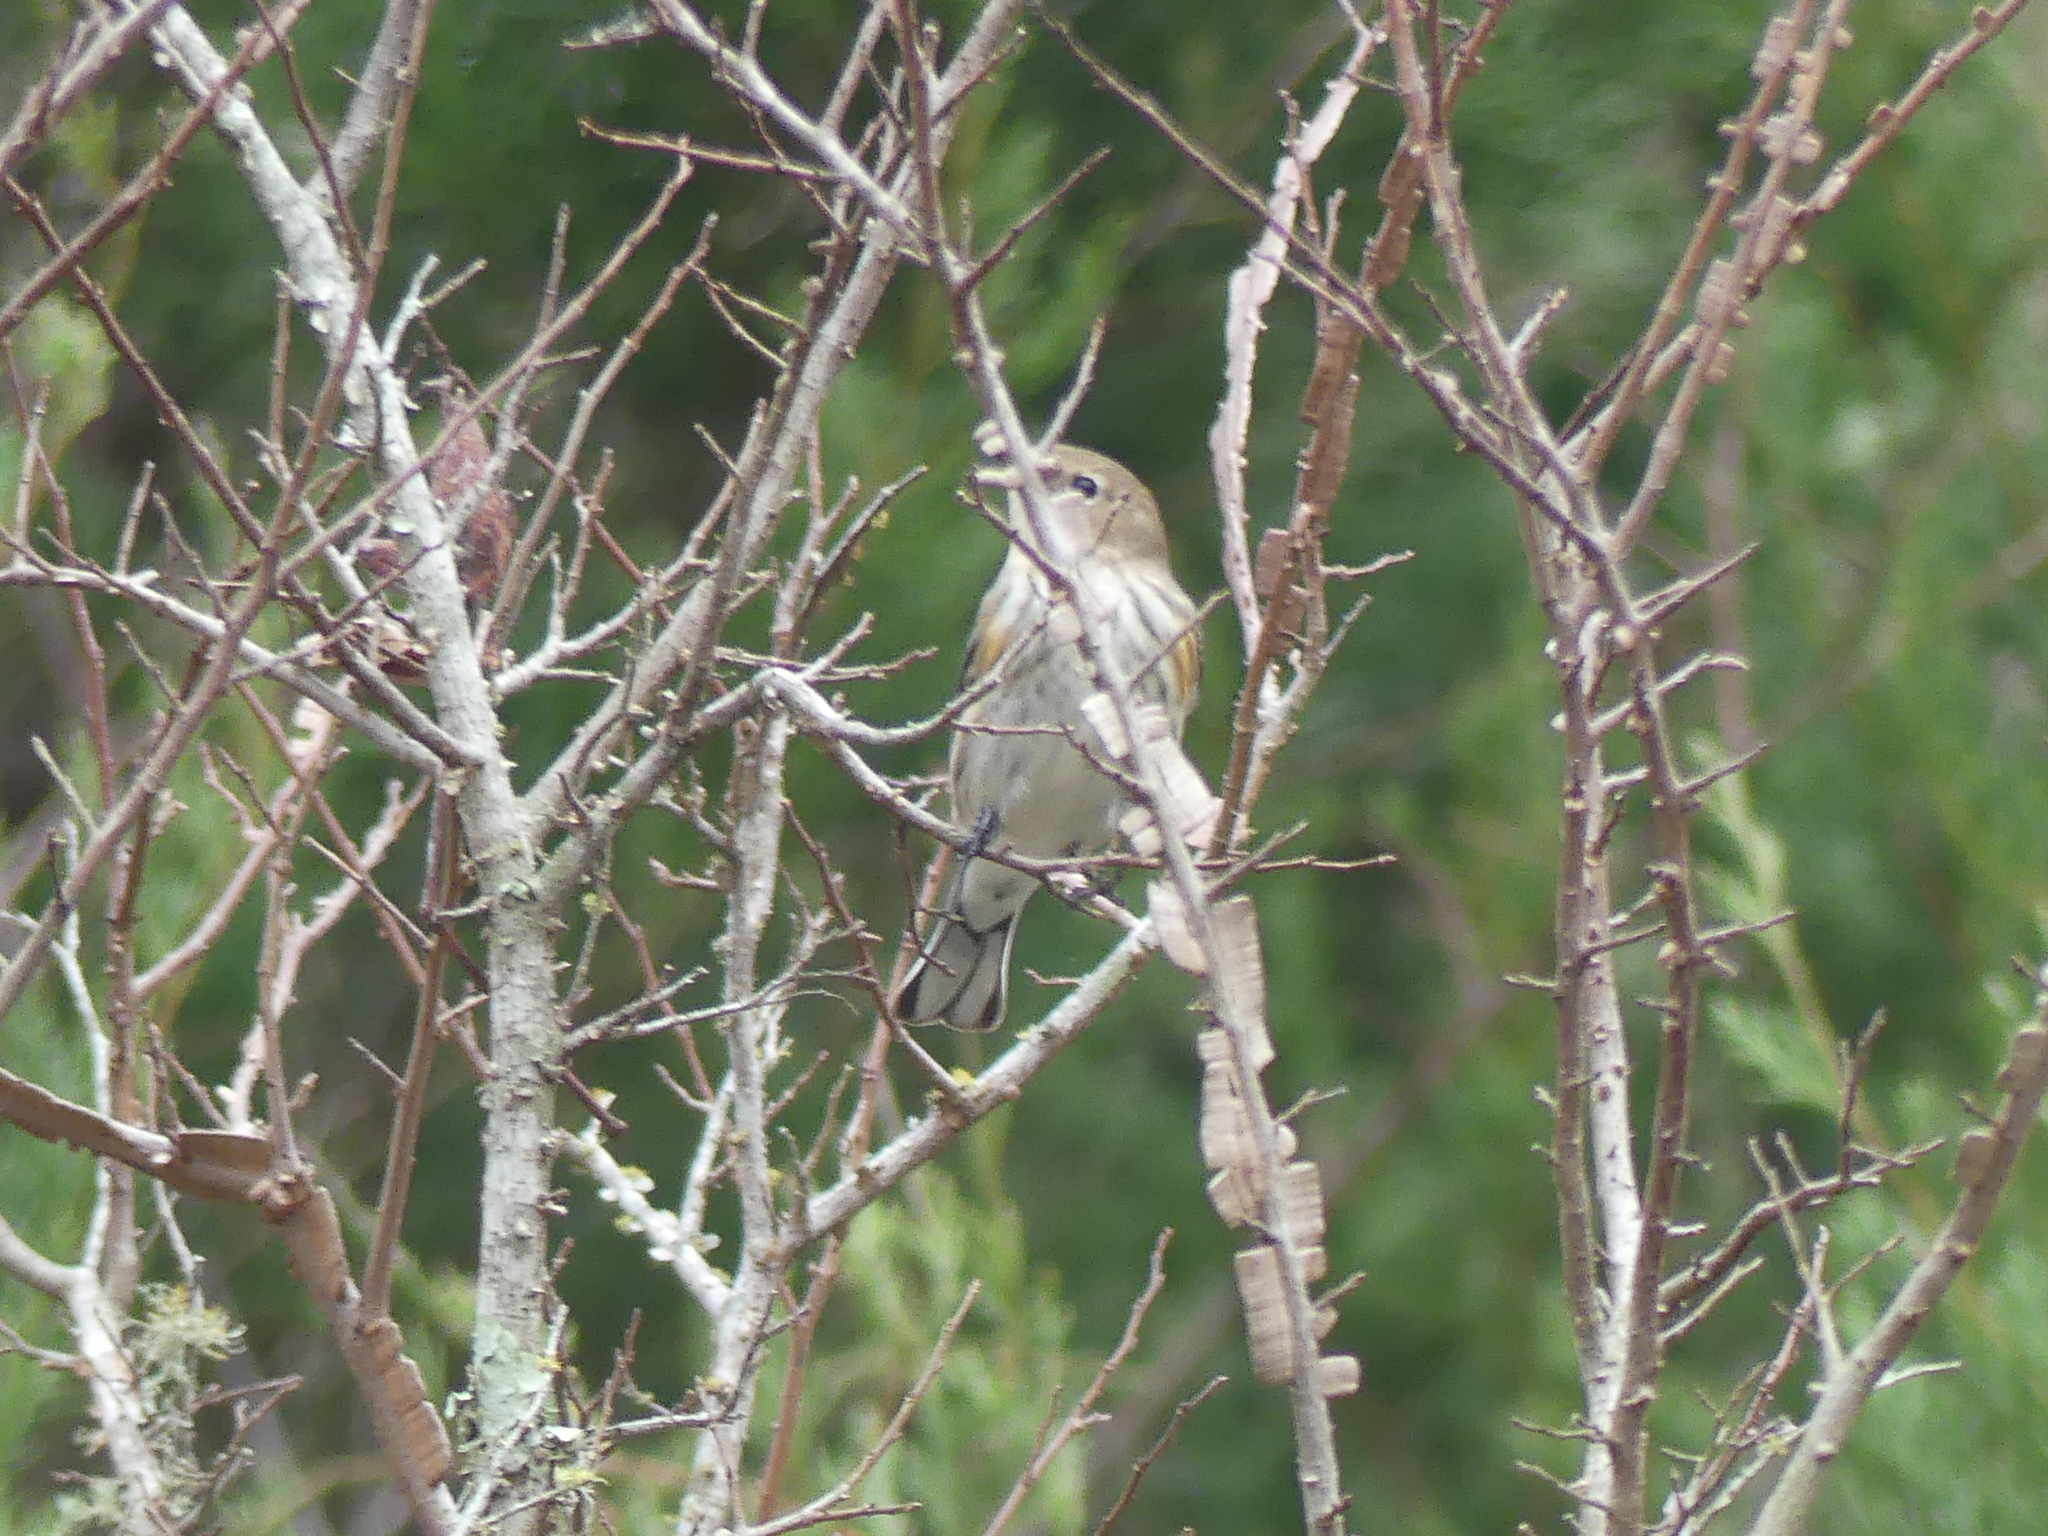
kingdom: Animalia
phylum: Chordata
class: Aves
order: Passeriformes
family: Parulidae
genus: Setophaga
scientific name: Setophaga coronata
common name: Myrtle warbler
